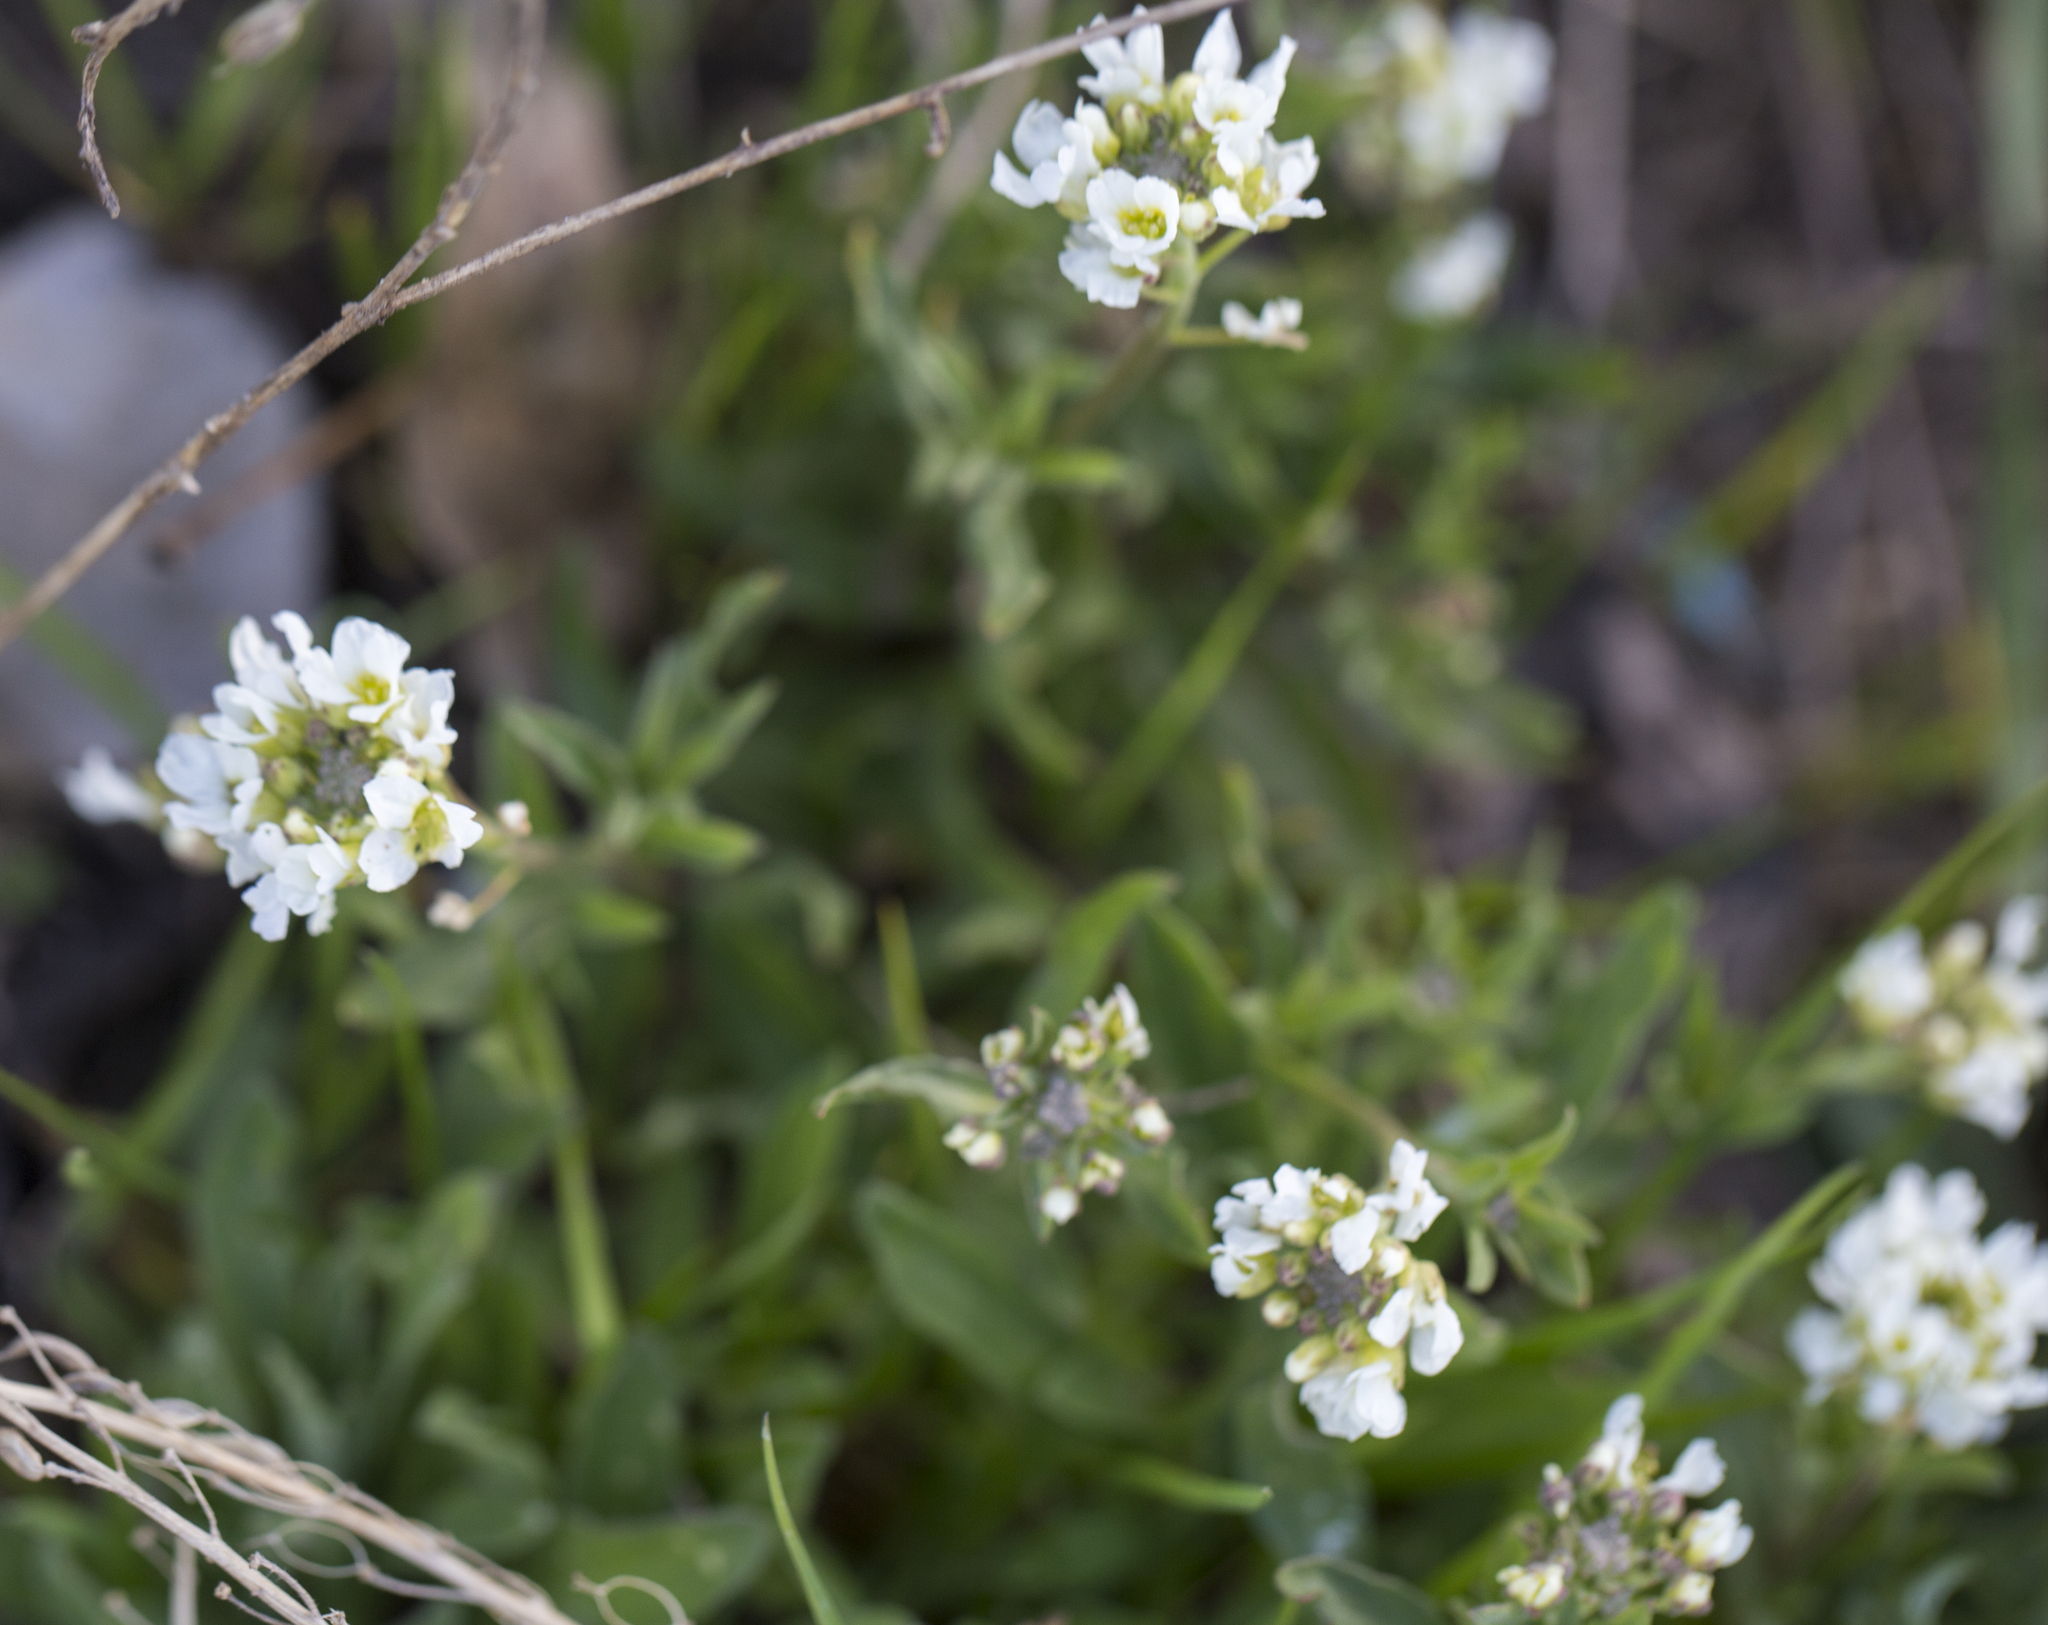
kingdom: Plantae
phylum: Tracheophyta
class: Magnoliopsida
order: Brassicales
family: Brassicaceae
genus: Berteroa
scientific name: Berteroa incana
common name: Hoary alison
